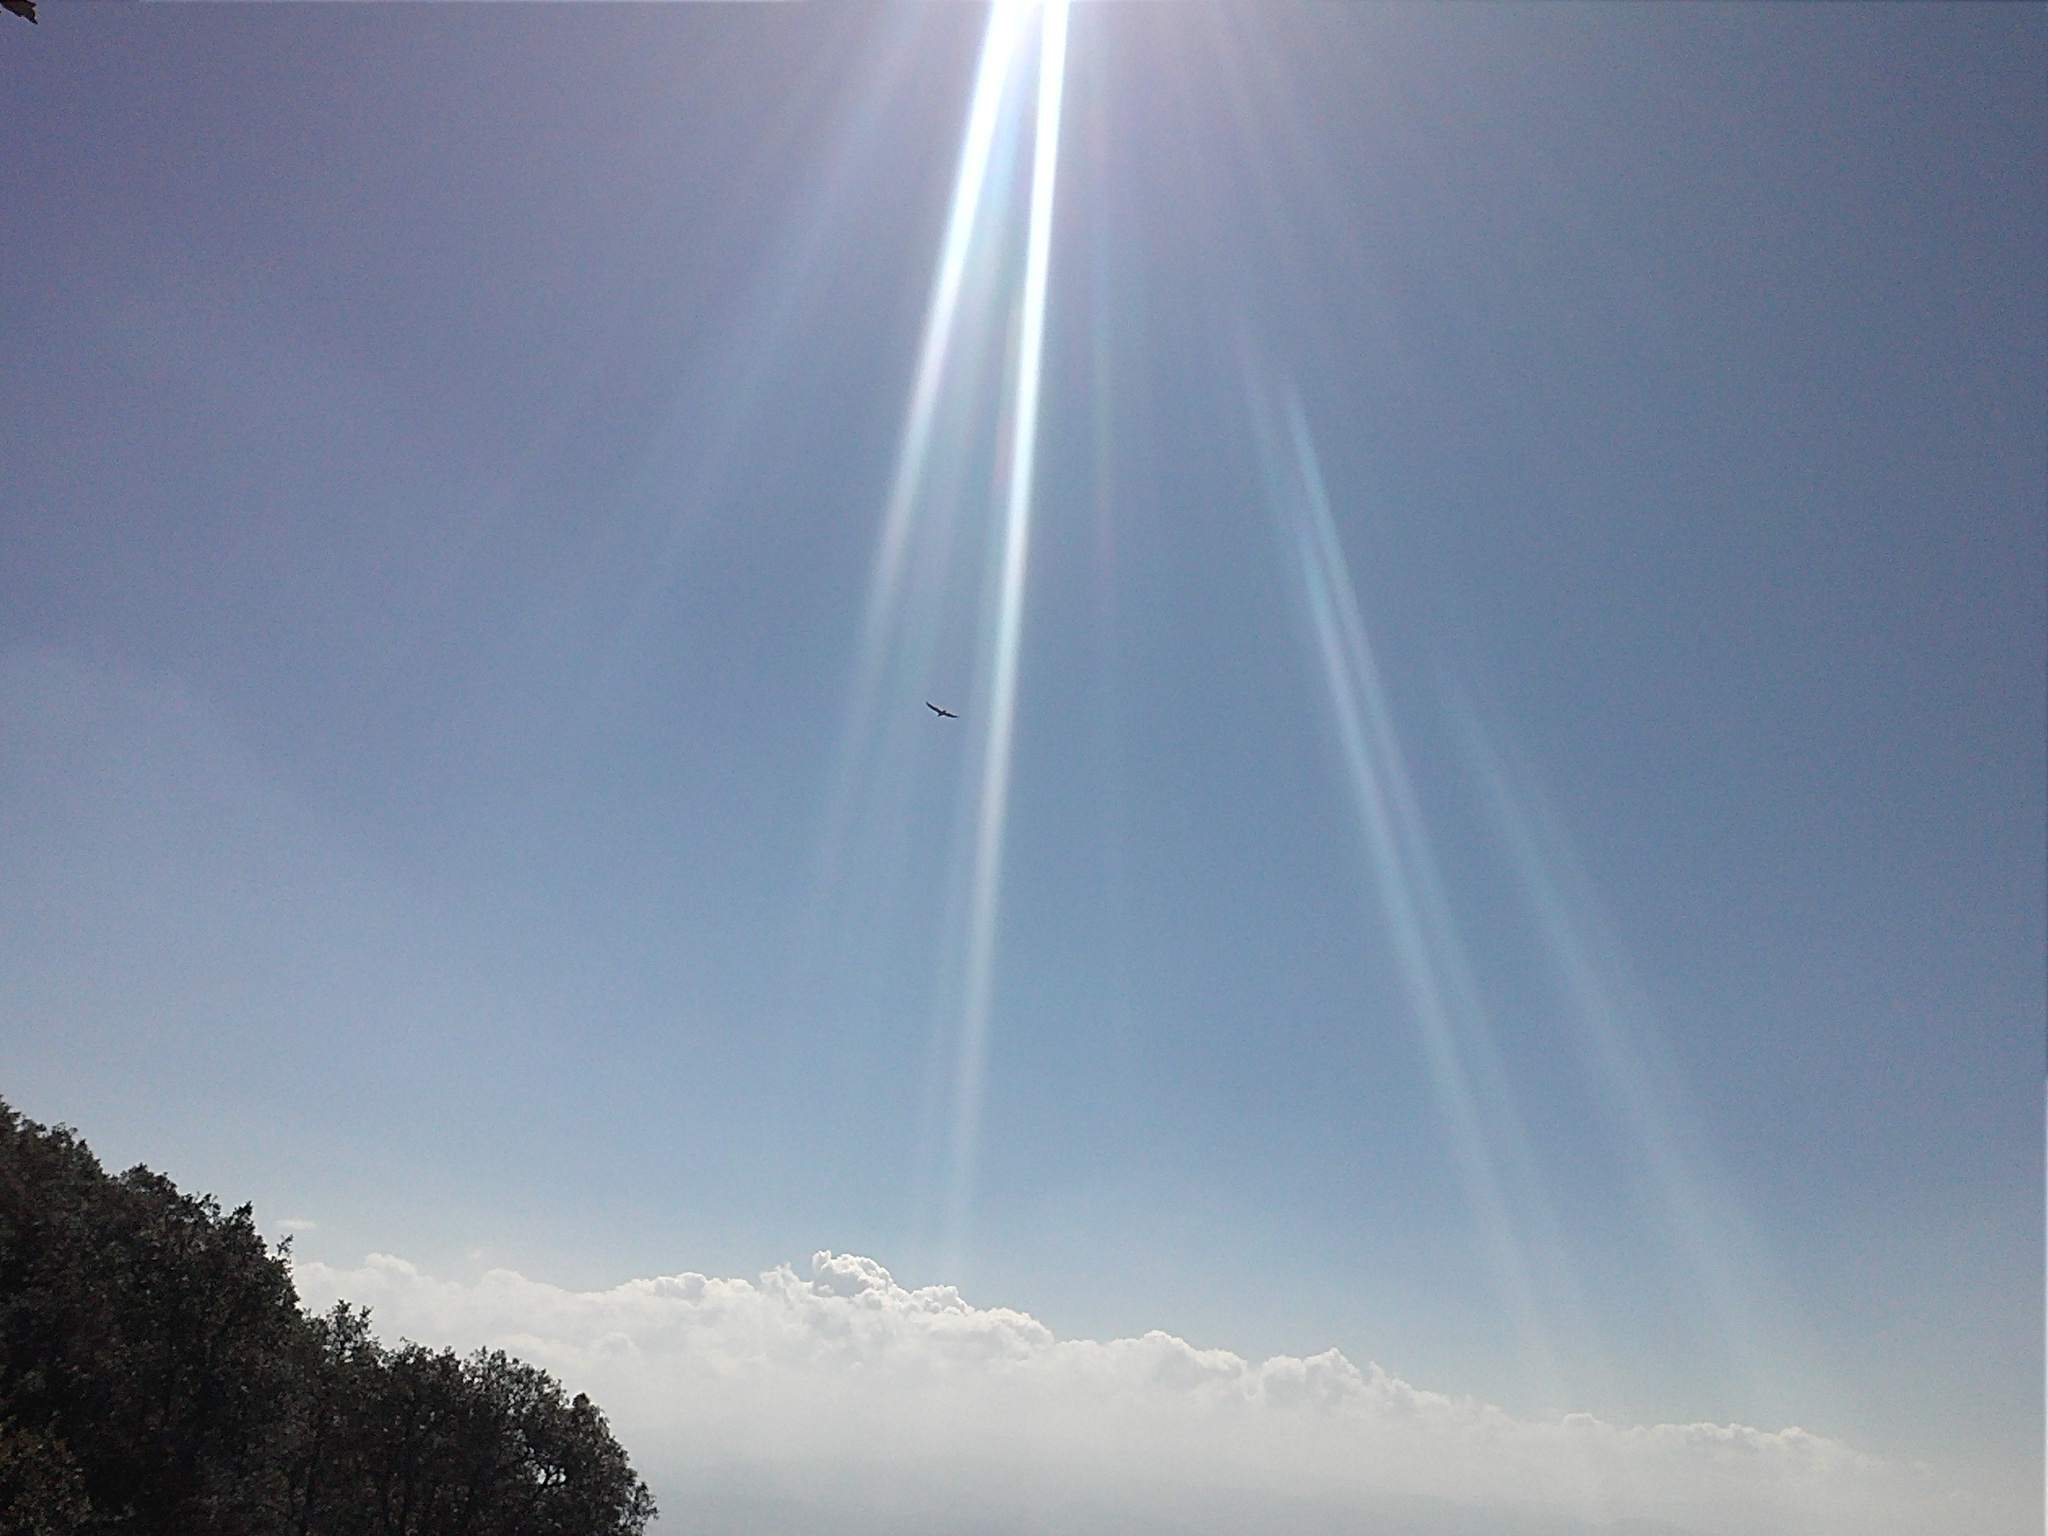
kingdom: Animalia
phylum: Chordata
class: Aves
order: Accipitriformes
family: Cathartidae
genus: Cathartes
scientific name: Cathartes aura
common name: Turkey vulture
